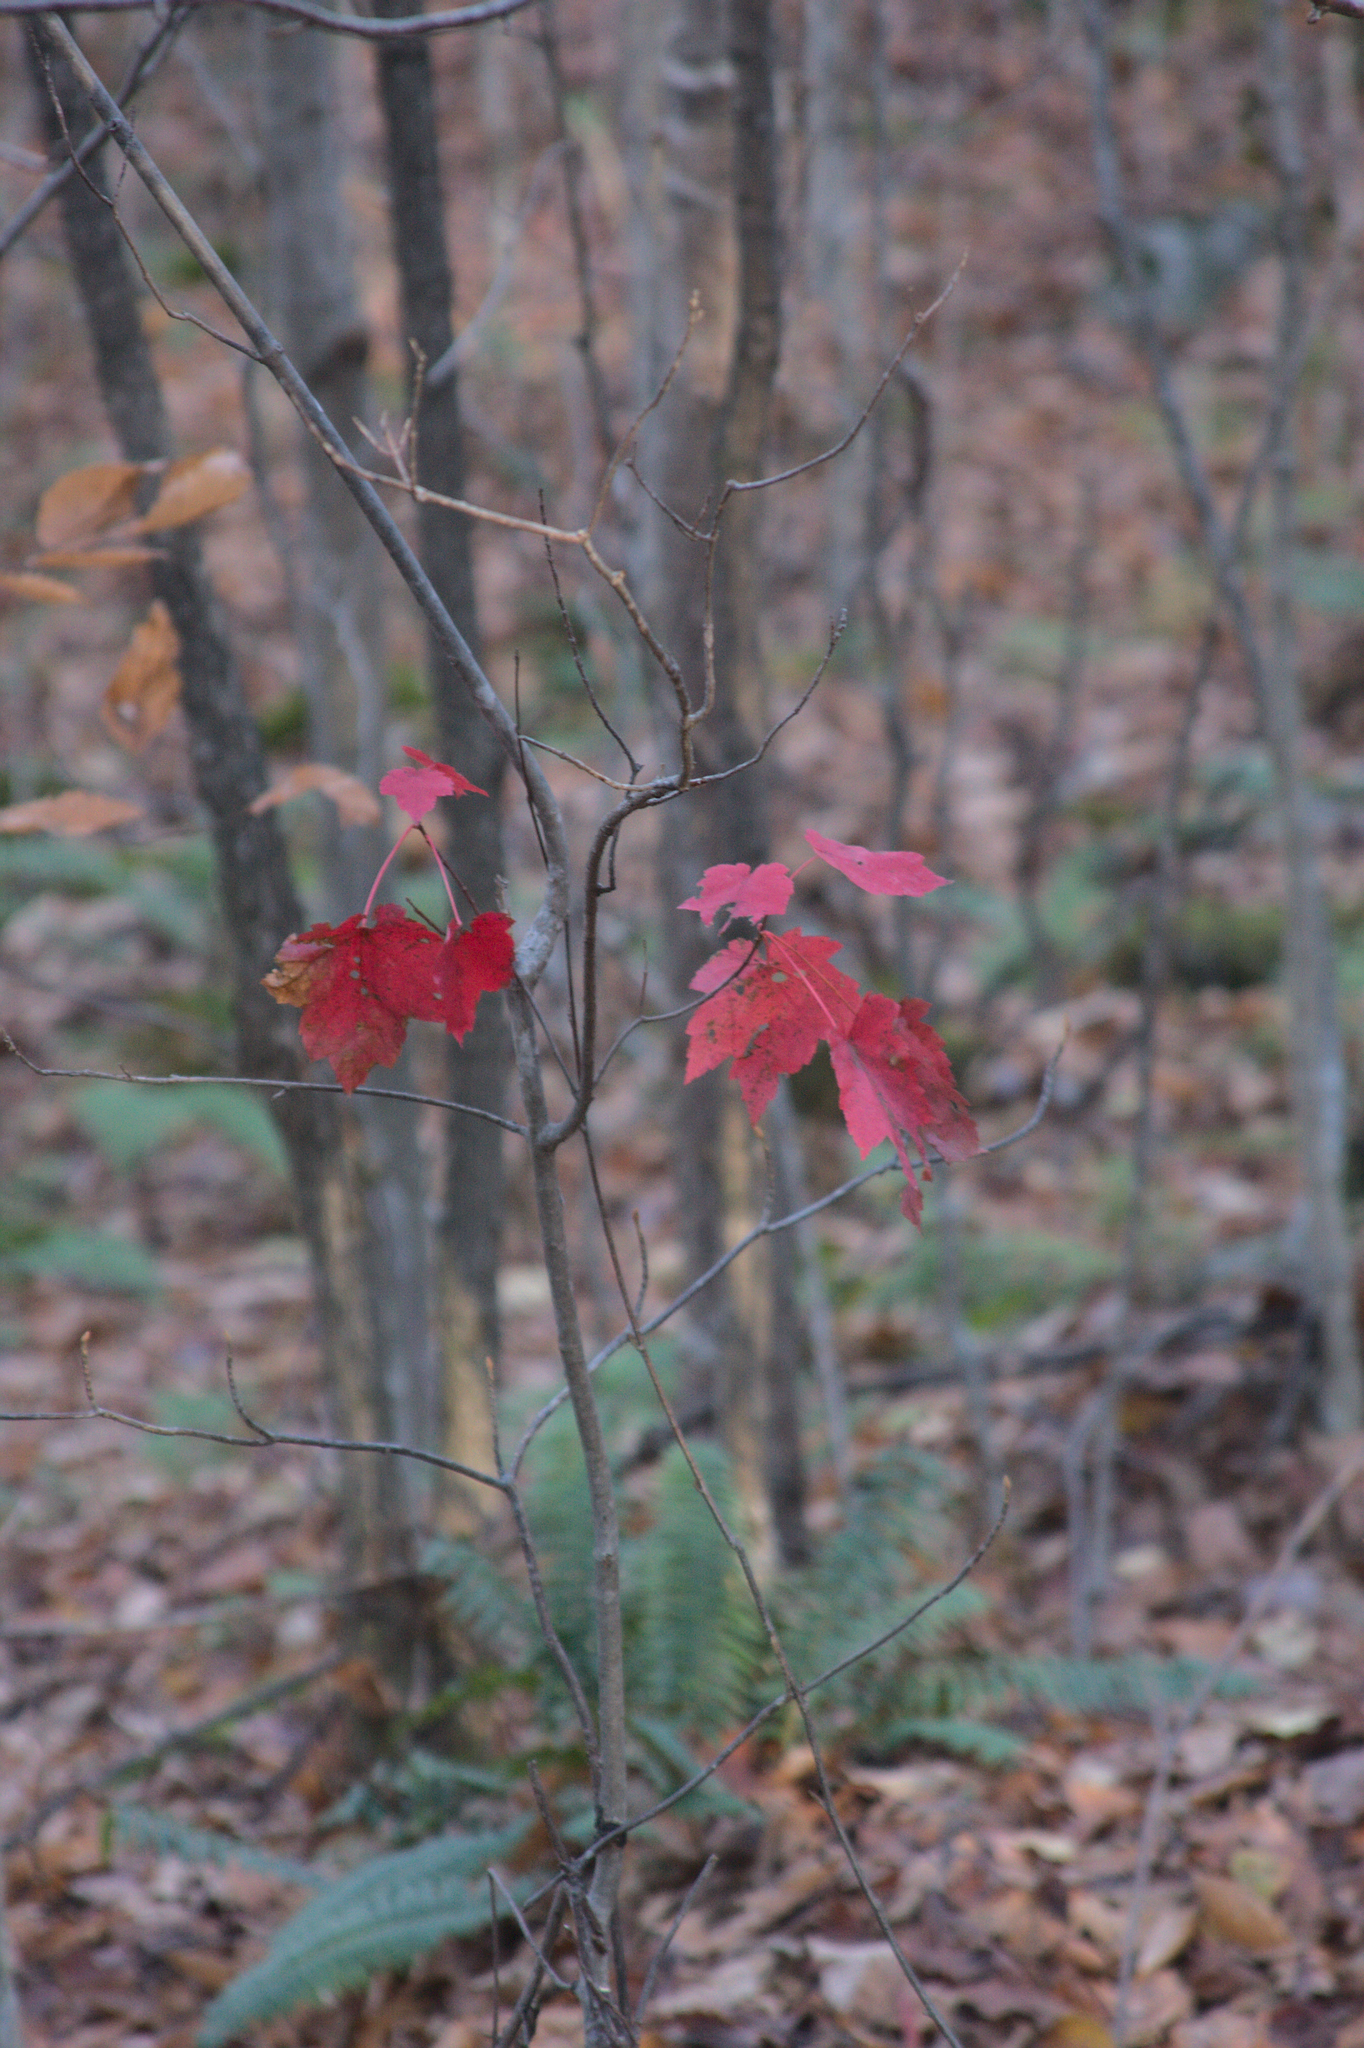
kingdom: Plantae
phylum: Tracheophyta
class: Magnoliopsida
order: Sapindales
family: Sapindaceae
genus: Acer
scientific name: Acer rubrum
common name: Red maple
